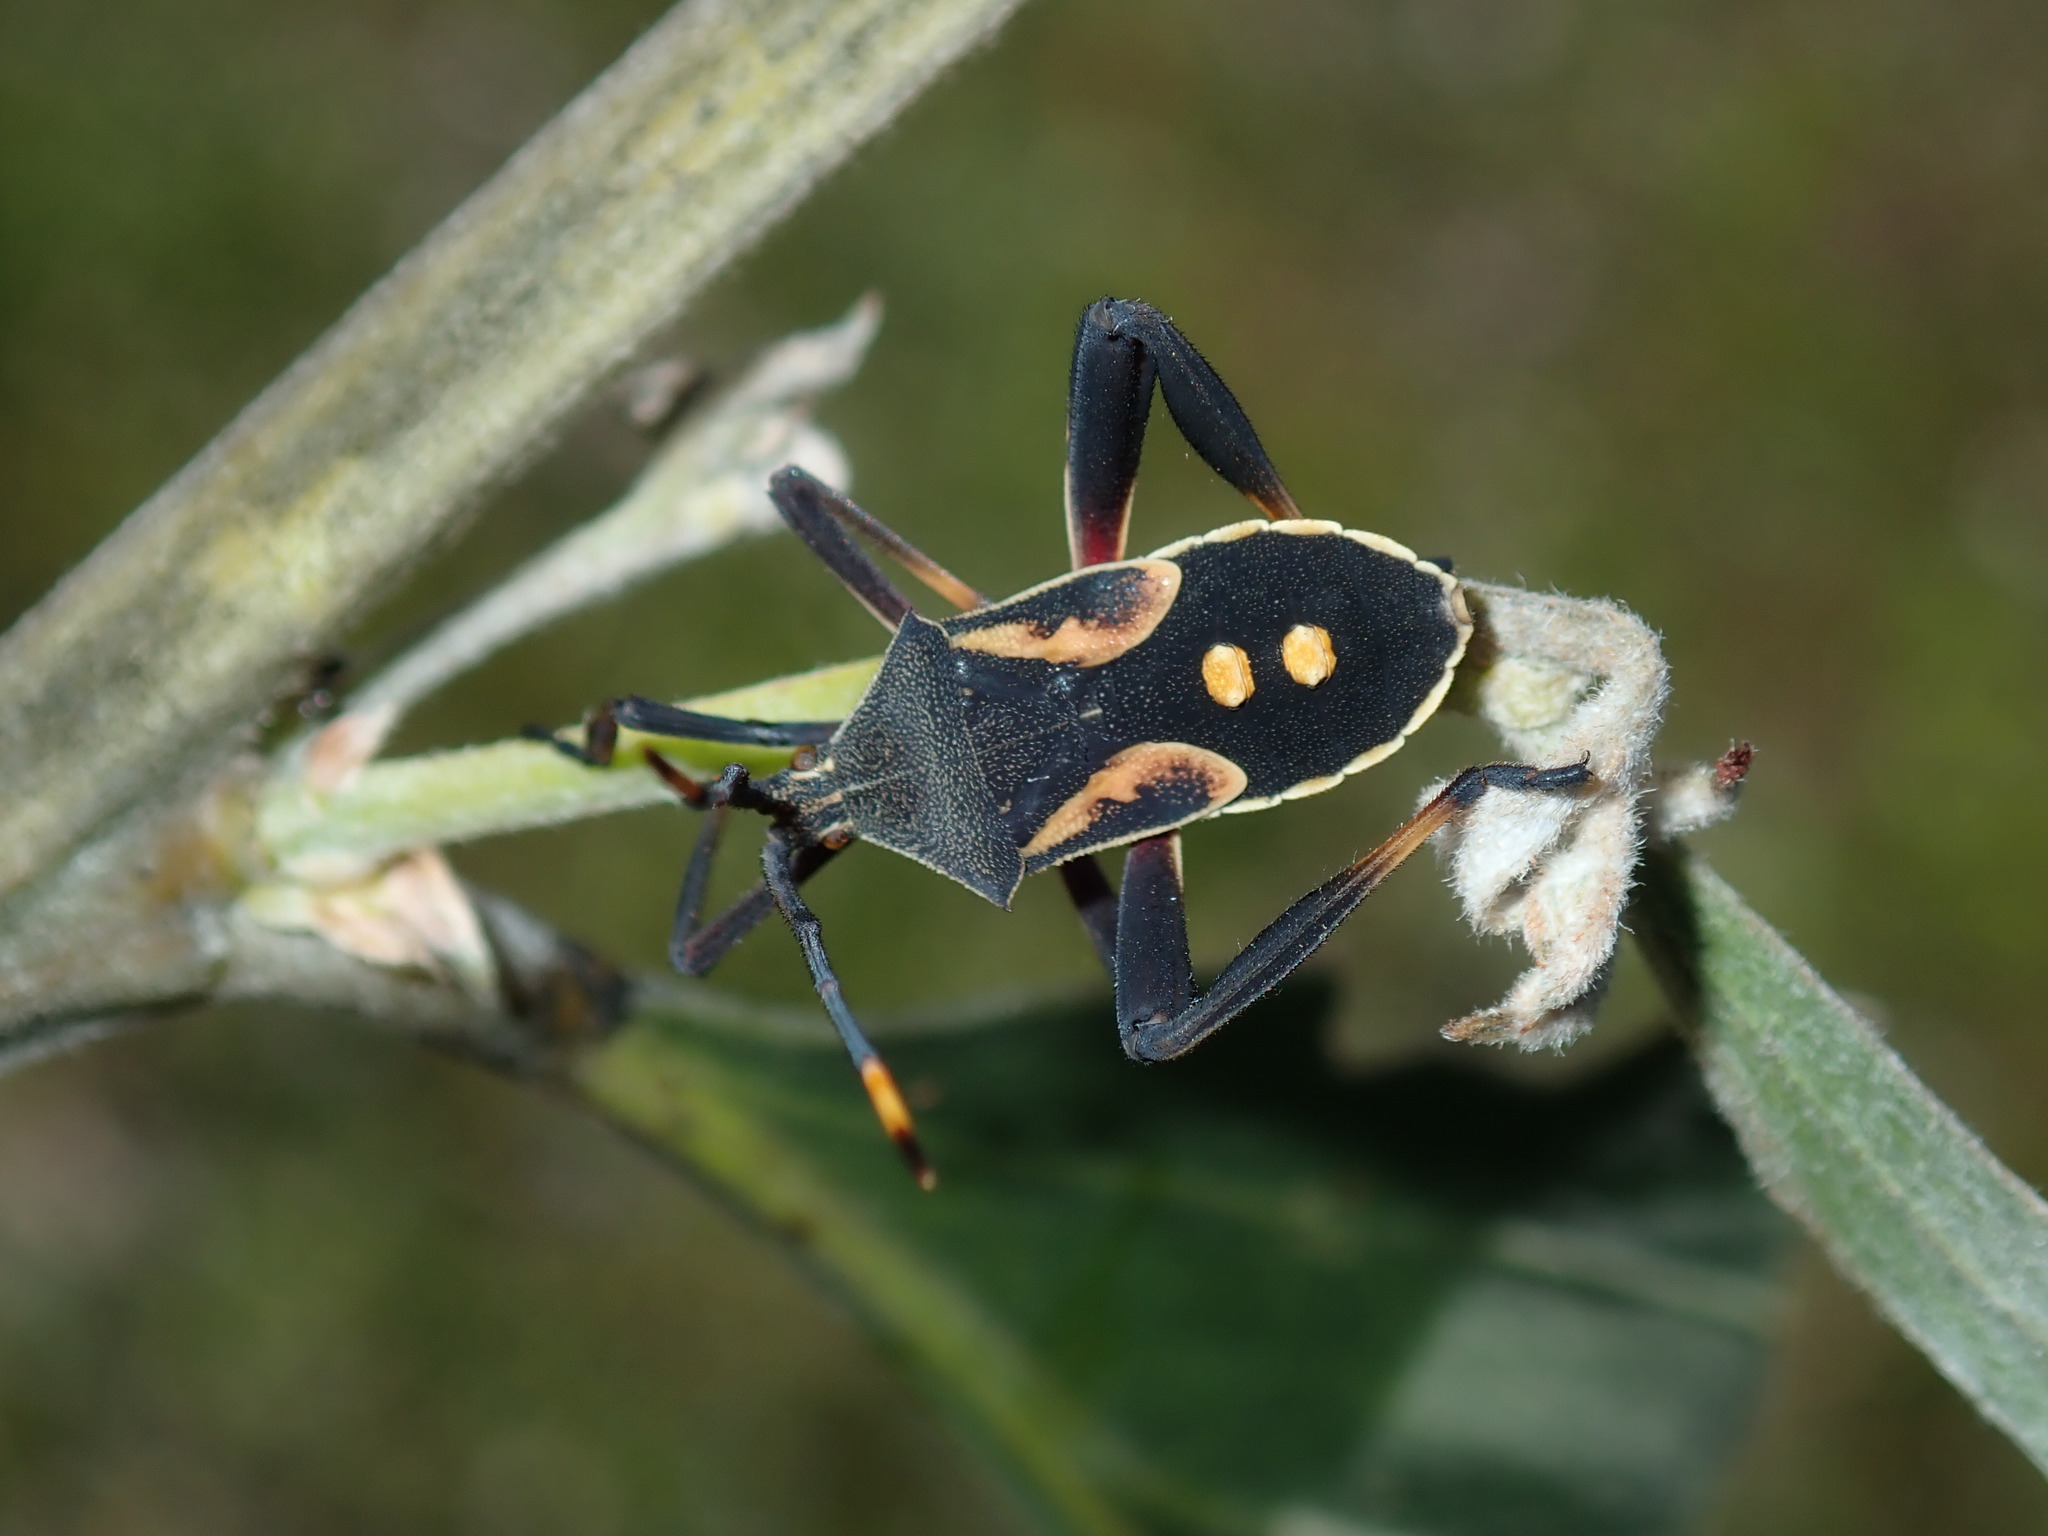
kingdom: Animalia
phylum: Arthropoda
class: Insecta
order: Hemiptera
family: Coreidae
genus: Mictis
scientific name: Mictis profana
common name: Crusader bug
